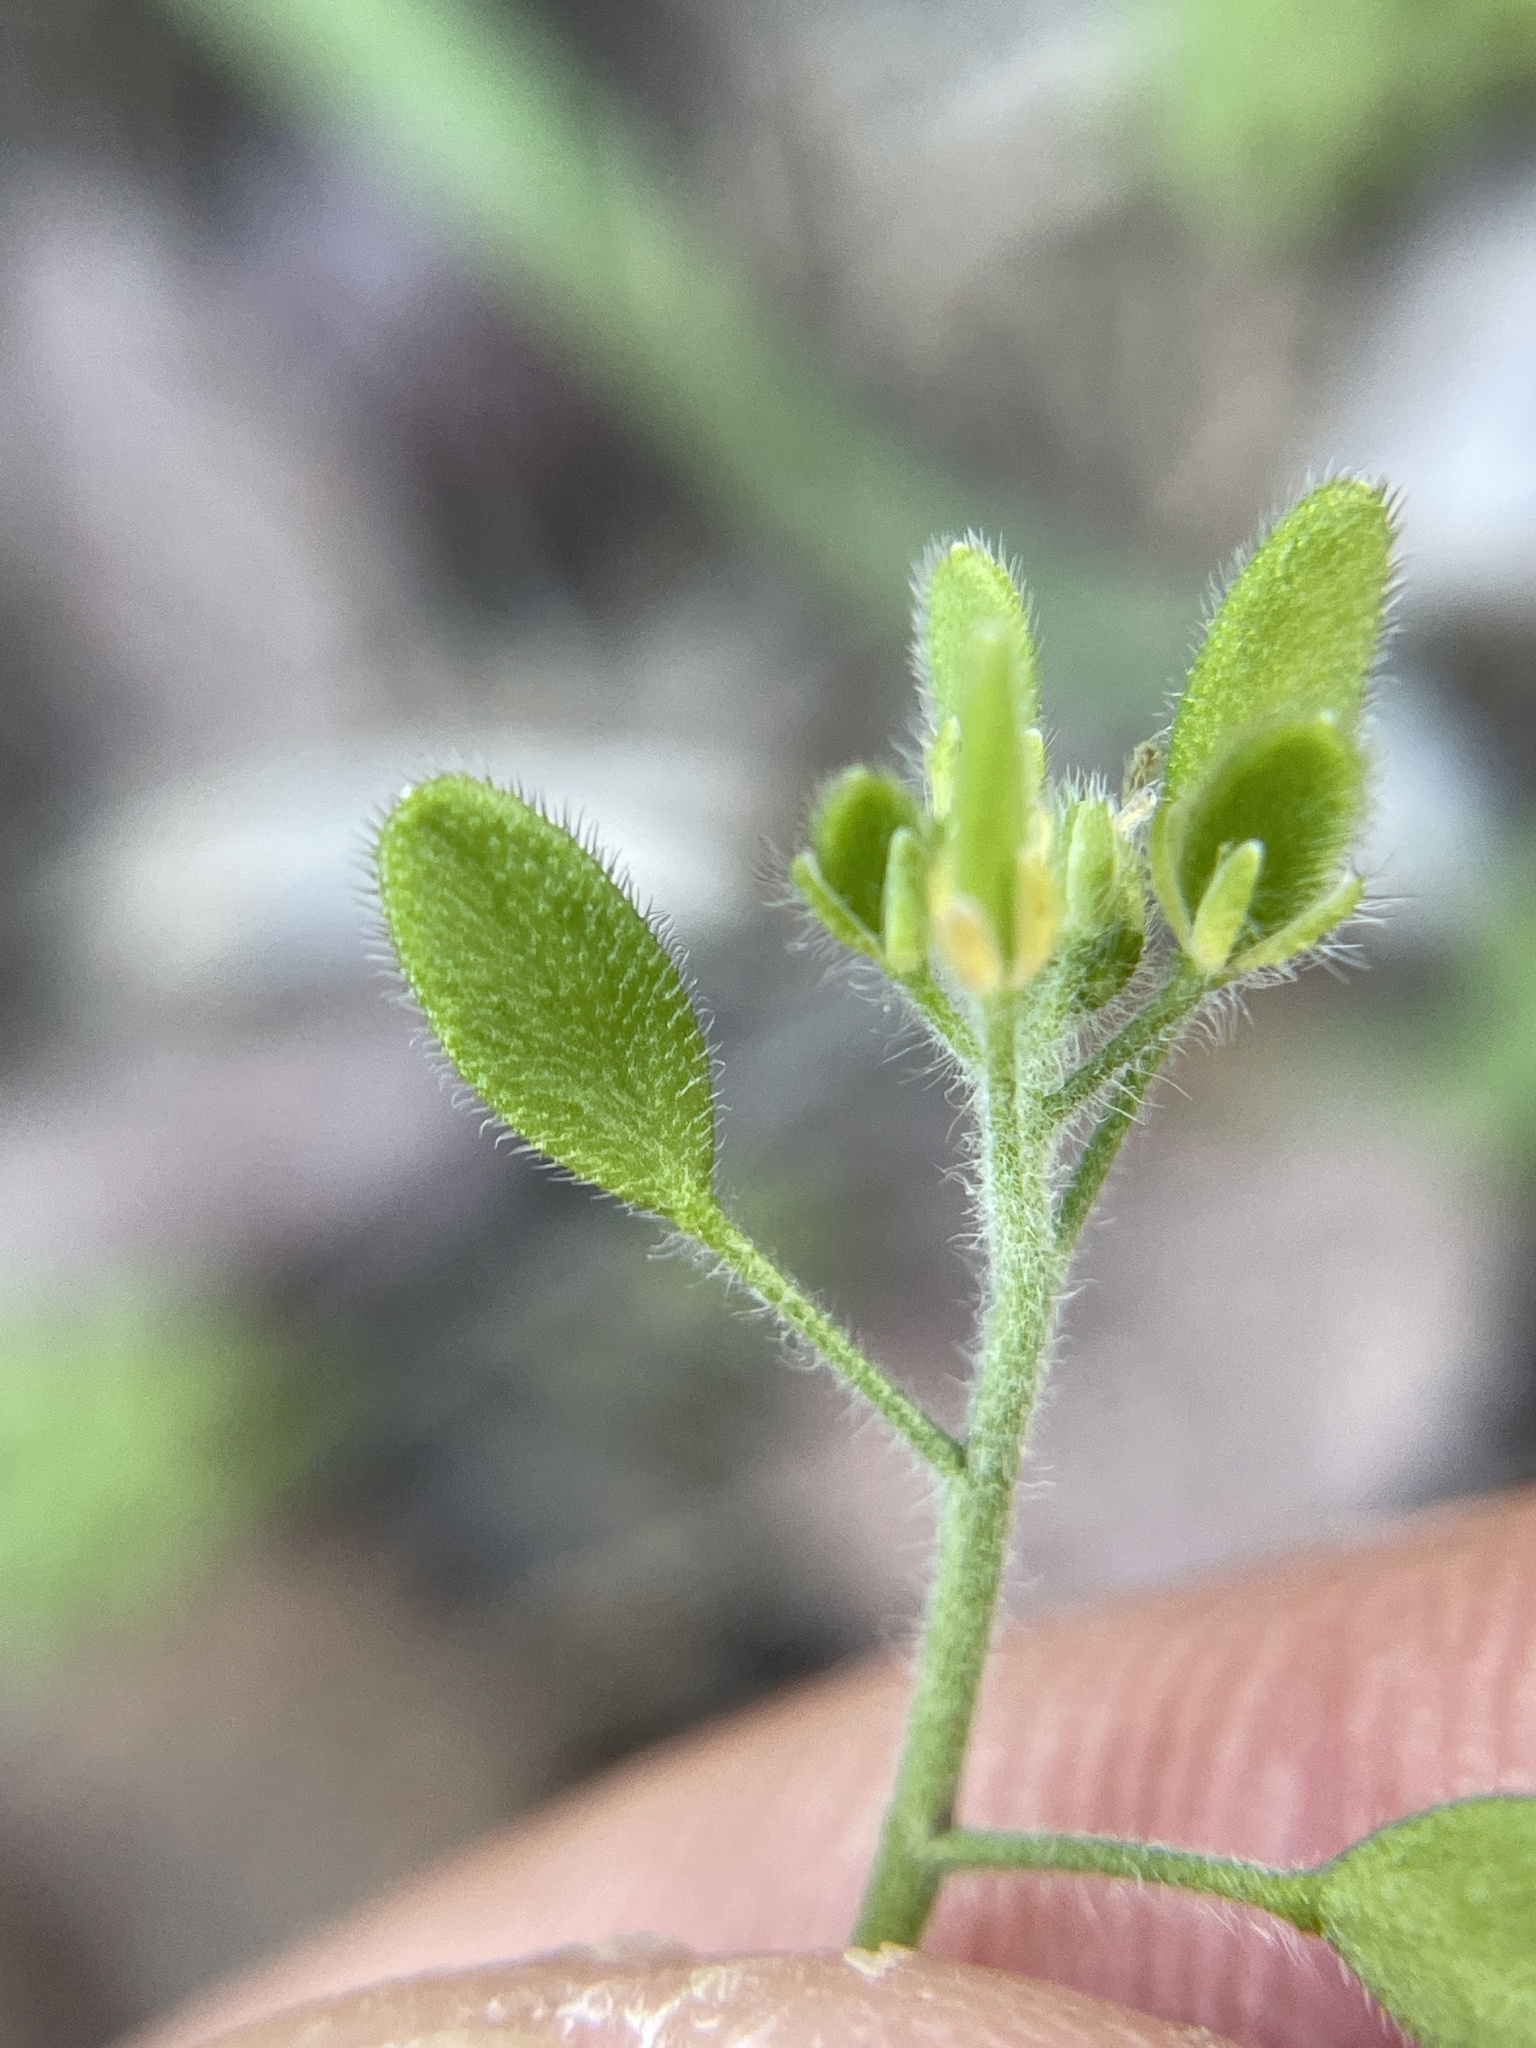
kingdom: Plantae
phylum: Tracheophyta
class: Magnoliopsida
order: Brassicales
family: Brassicaceae
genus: Tomostima
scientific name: Tomostima platycarpa
